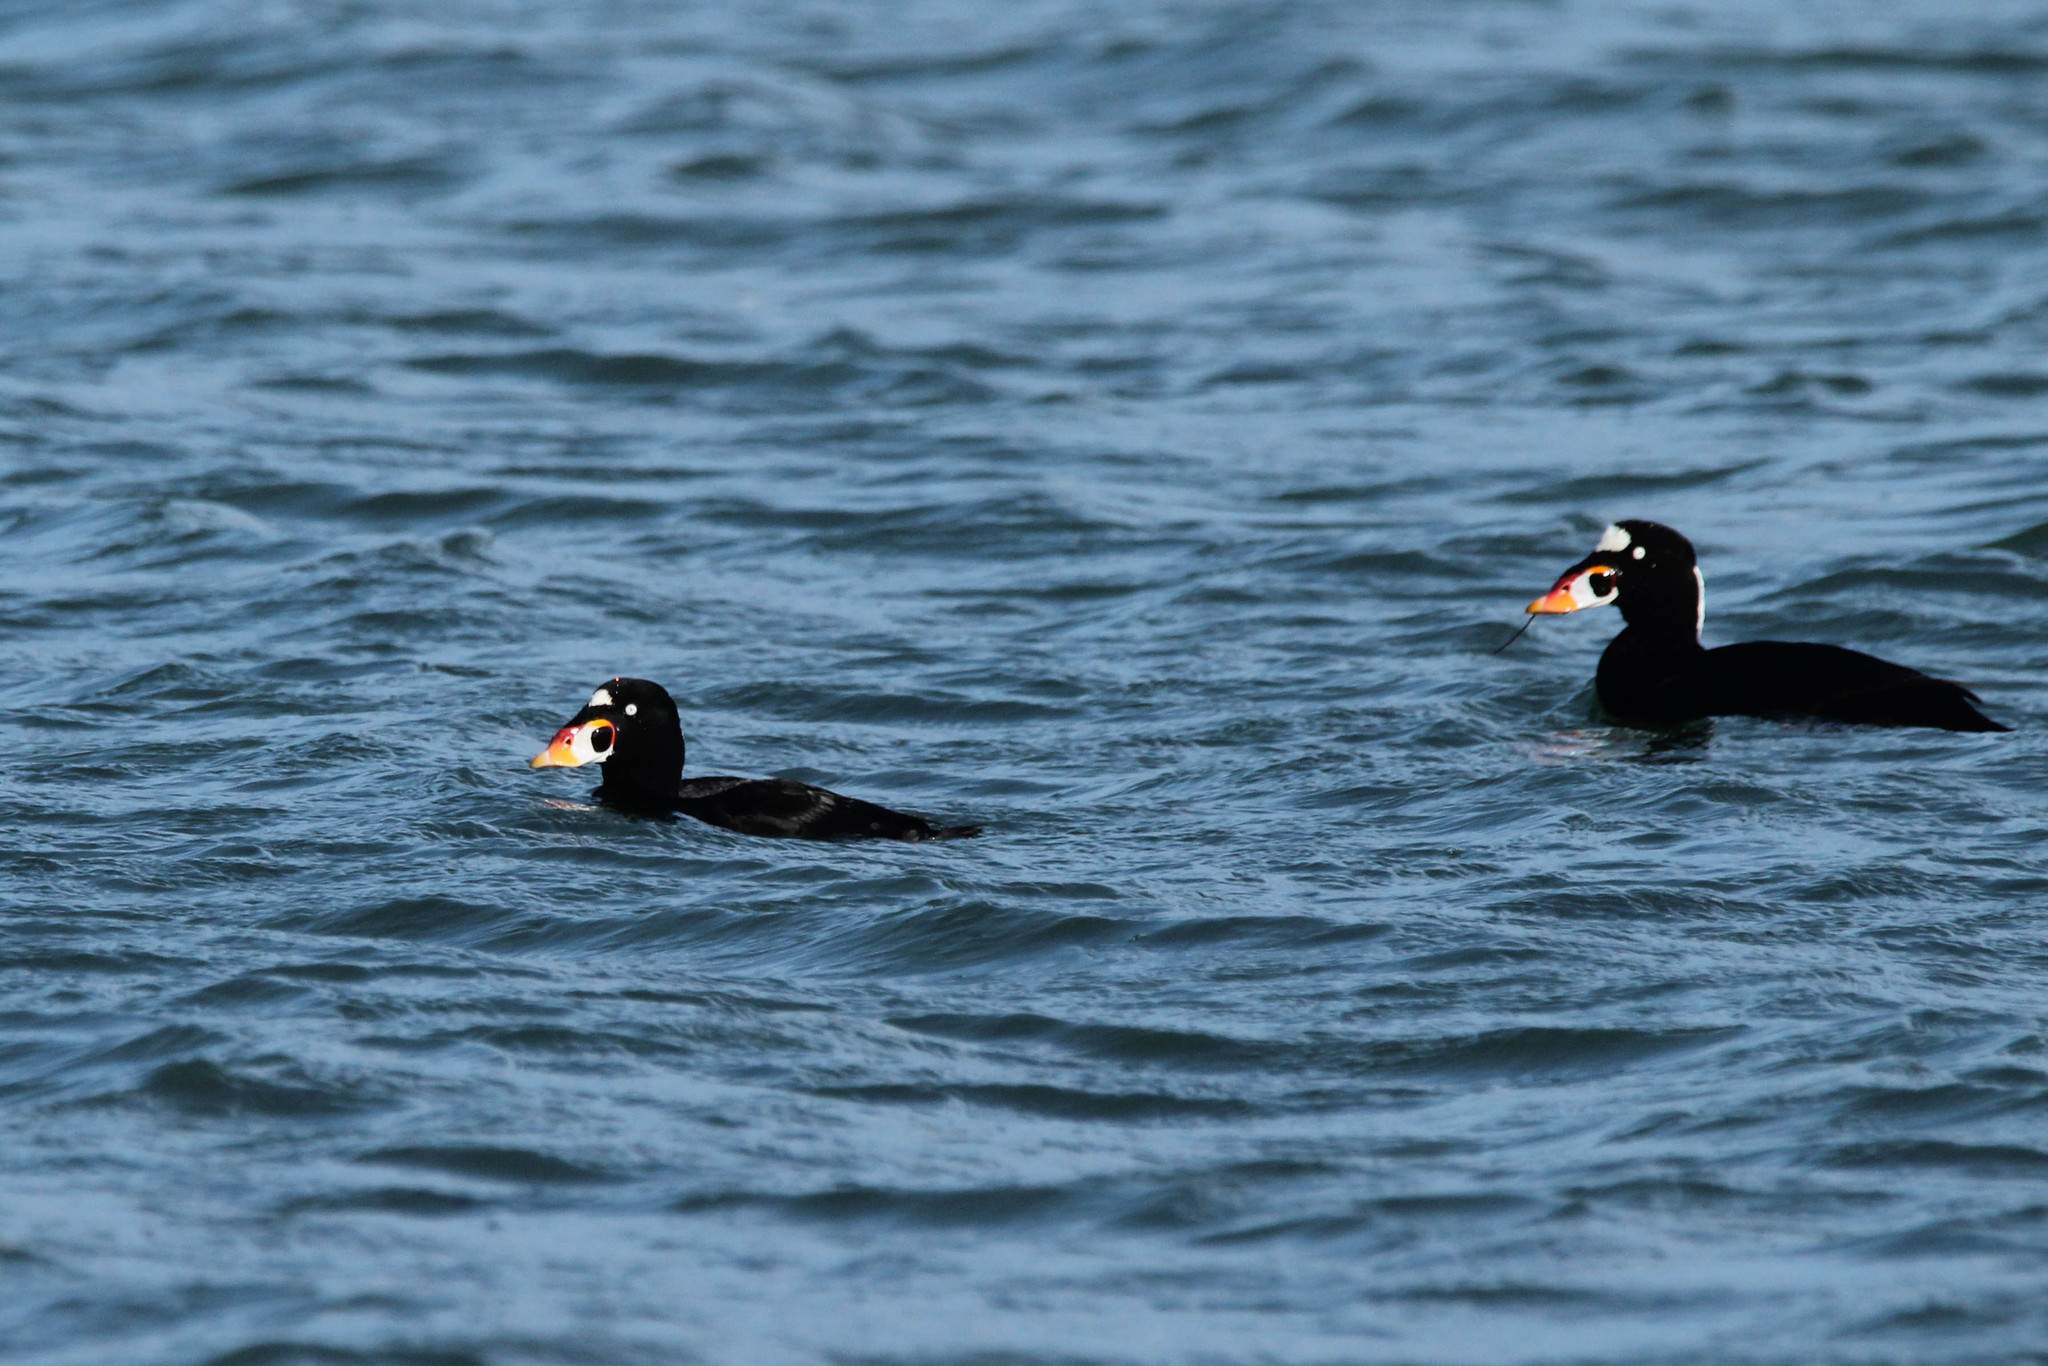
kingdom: Animalia
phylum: Chordata
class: Aves
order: Anseriformes
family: Anatidae
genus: Melanitta
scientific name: Melanitta perspicillata
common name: Surf scoter
